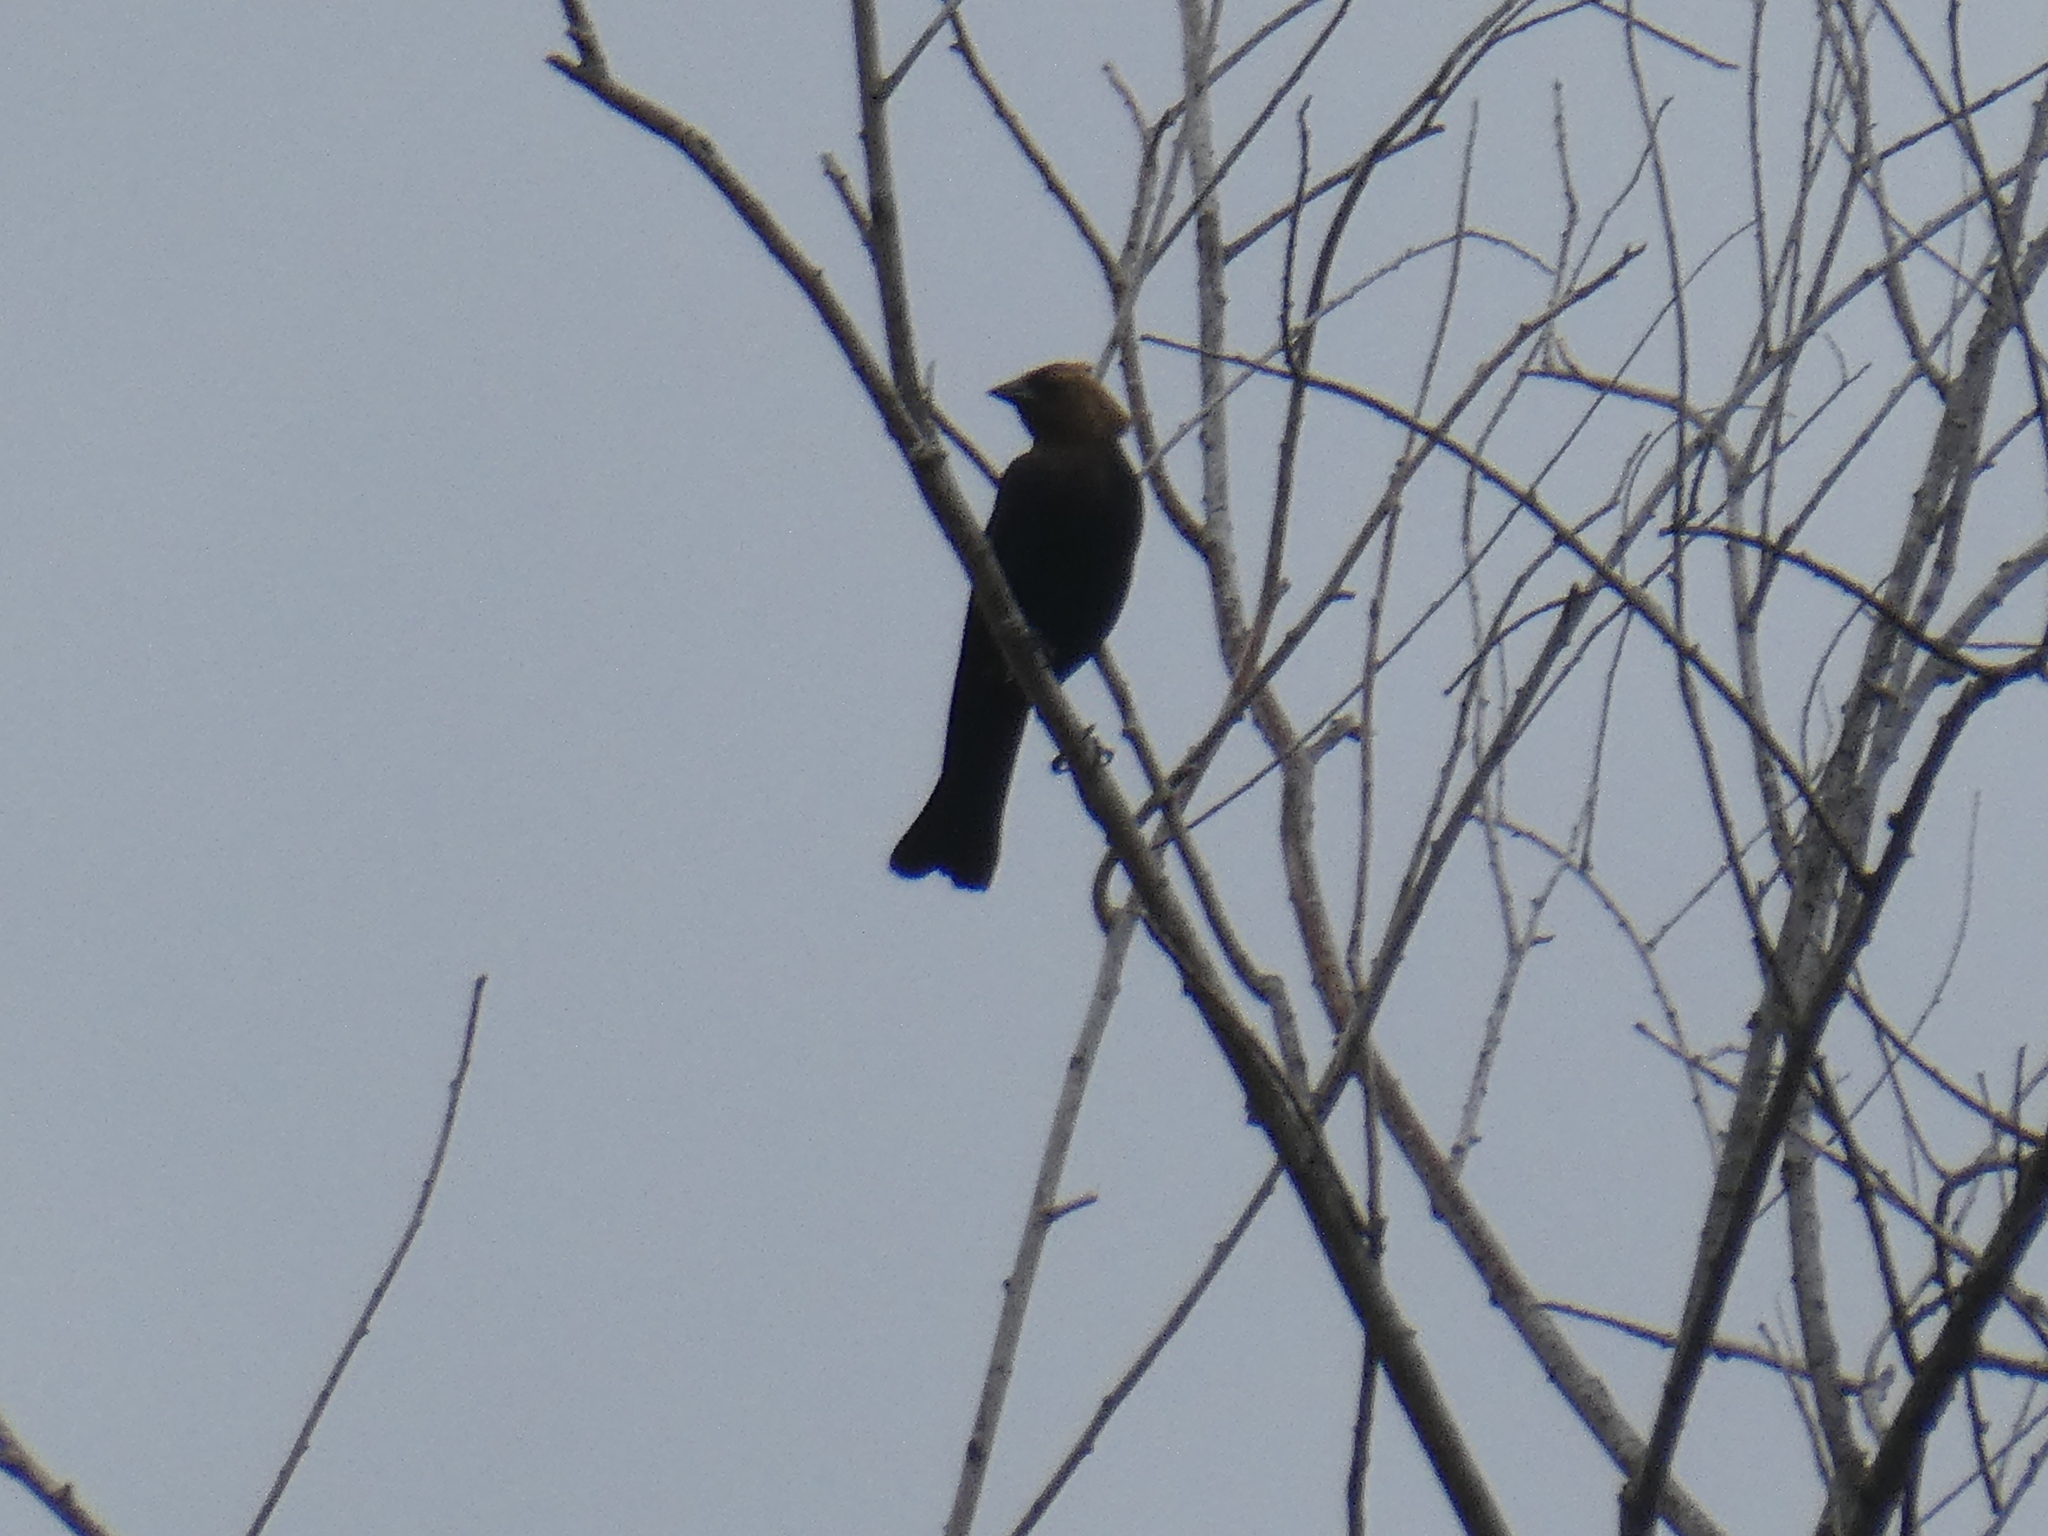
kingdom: Animalia
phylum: Chordata
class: Aves
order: Passeriformes
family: Icteridae
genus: Molothrus
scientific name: Molothrus ater
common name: Brown-headed cowbird
